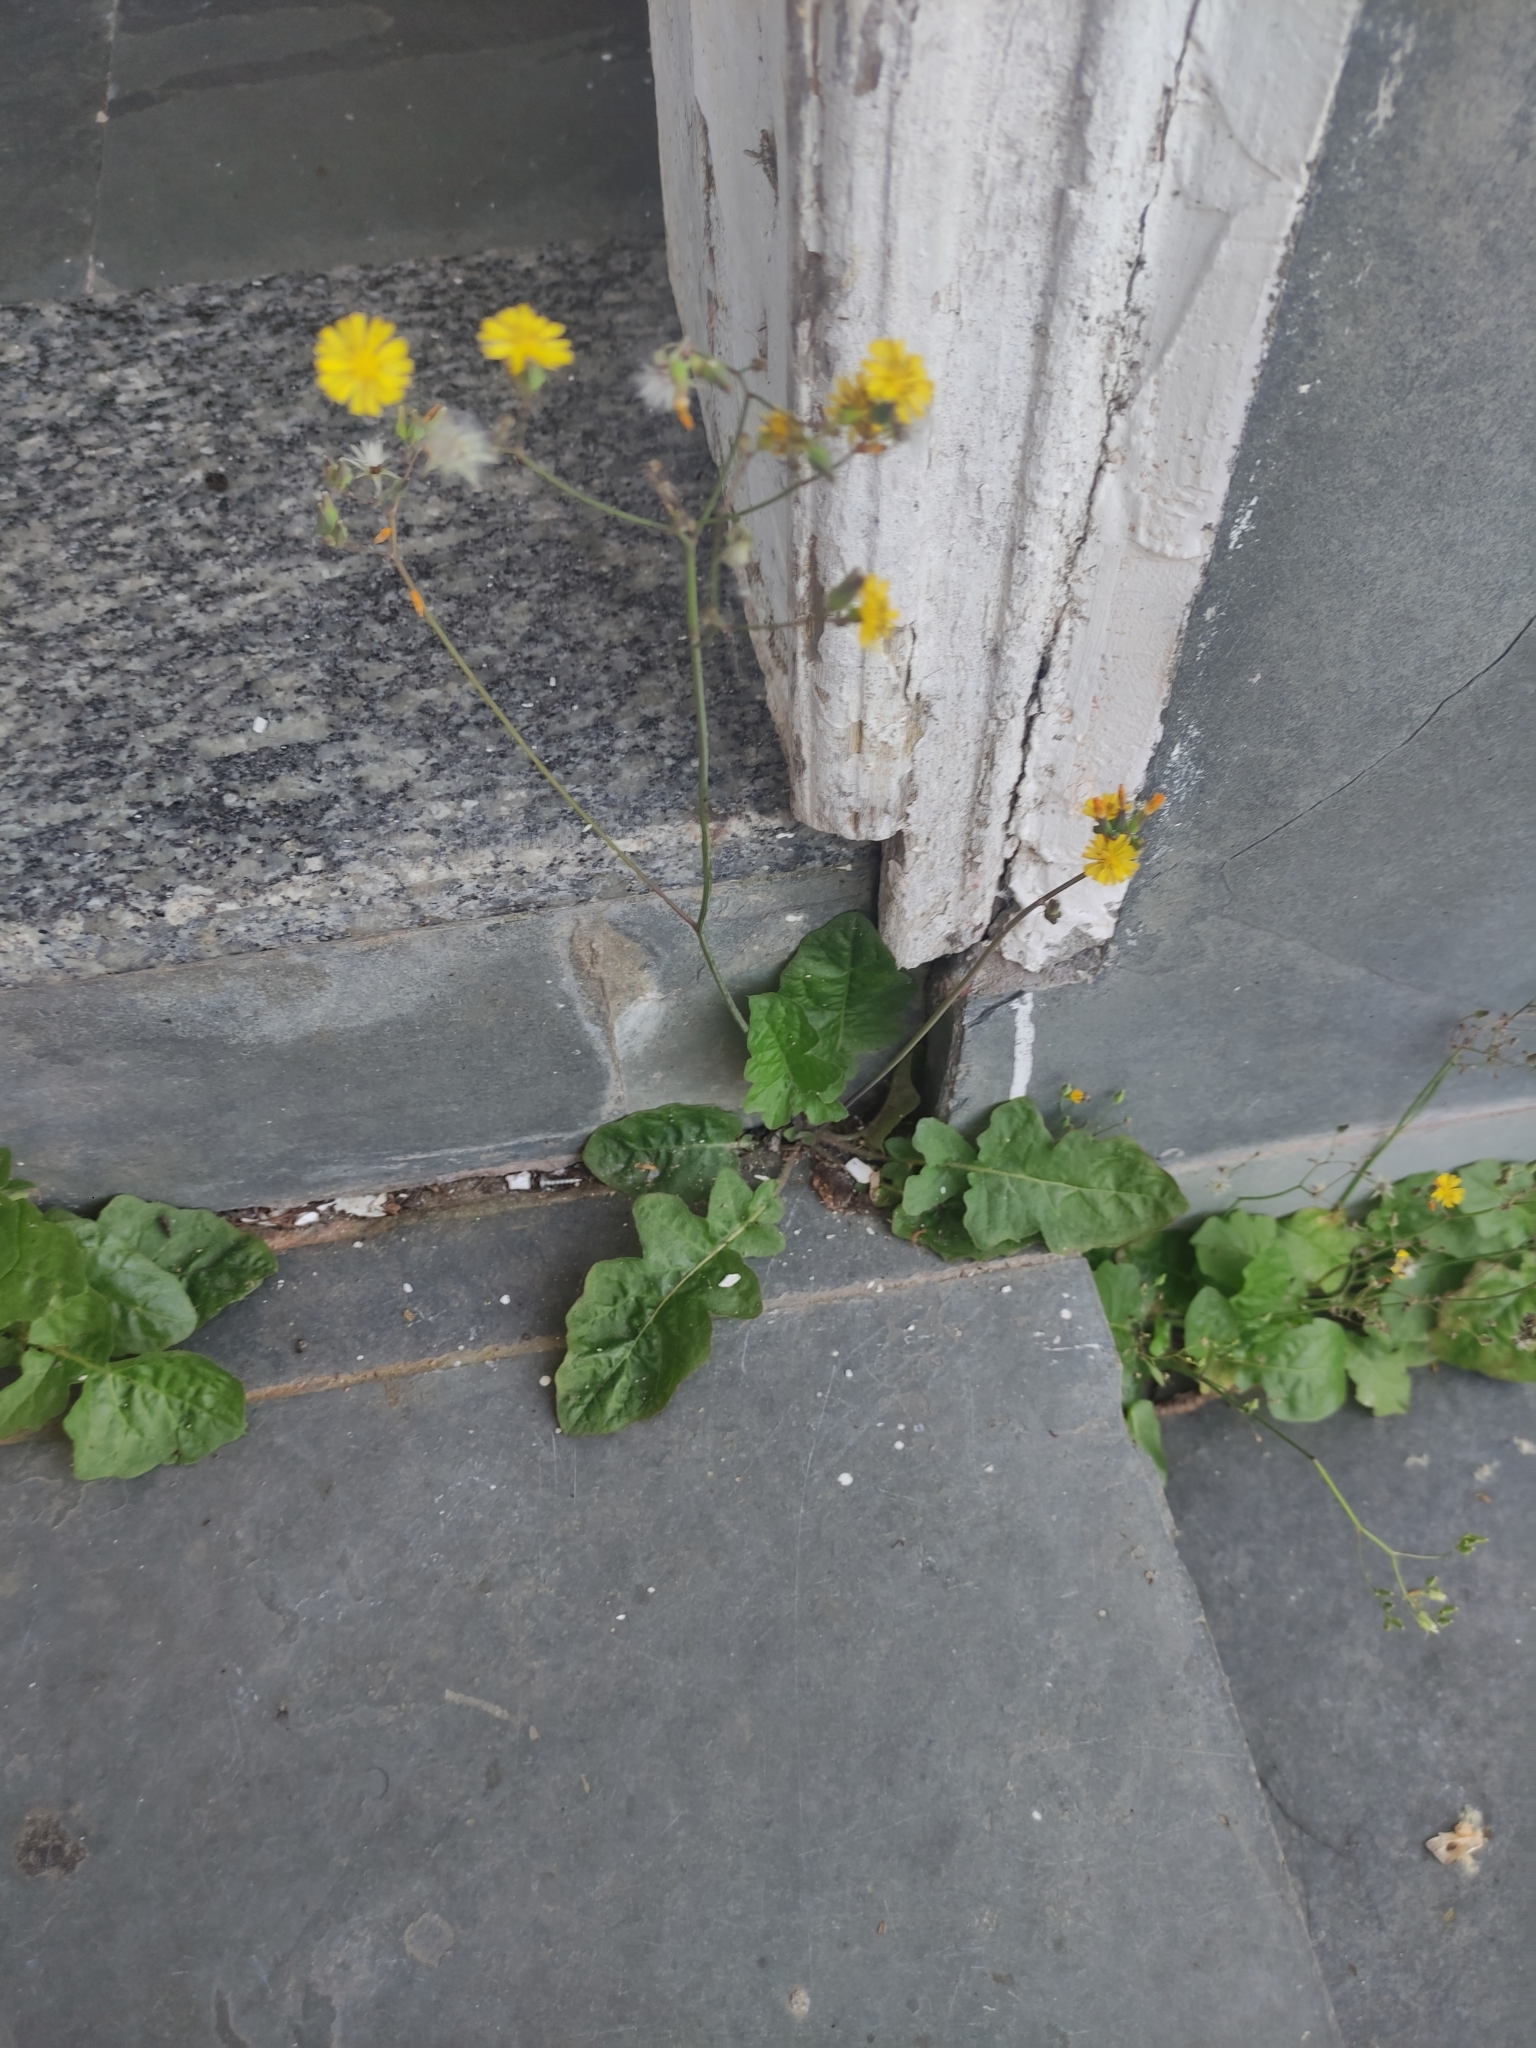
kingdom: Plantae
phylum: Tracheophyta
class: Magnoliopsida
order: Asterales
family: Asteraceae
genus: Youngia
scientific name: Youngia japonica
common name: Oriental false hawksbeard
